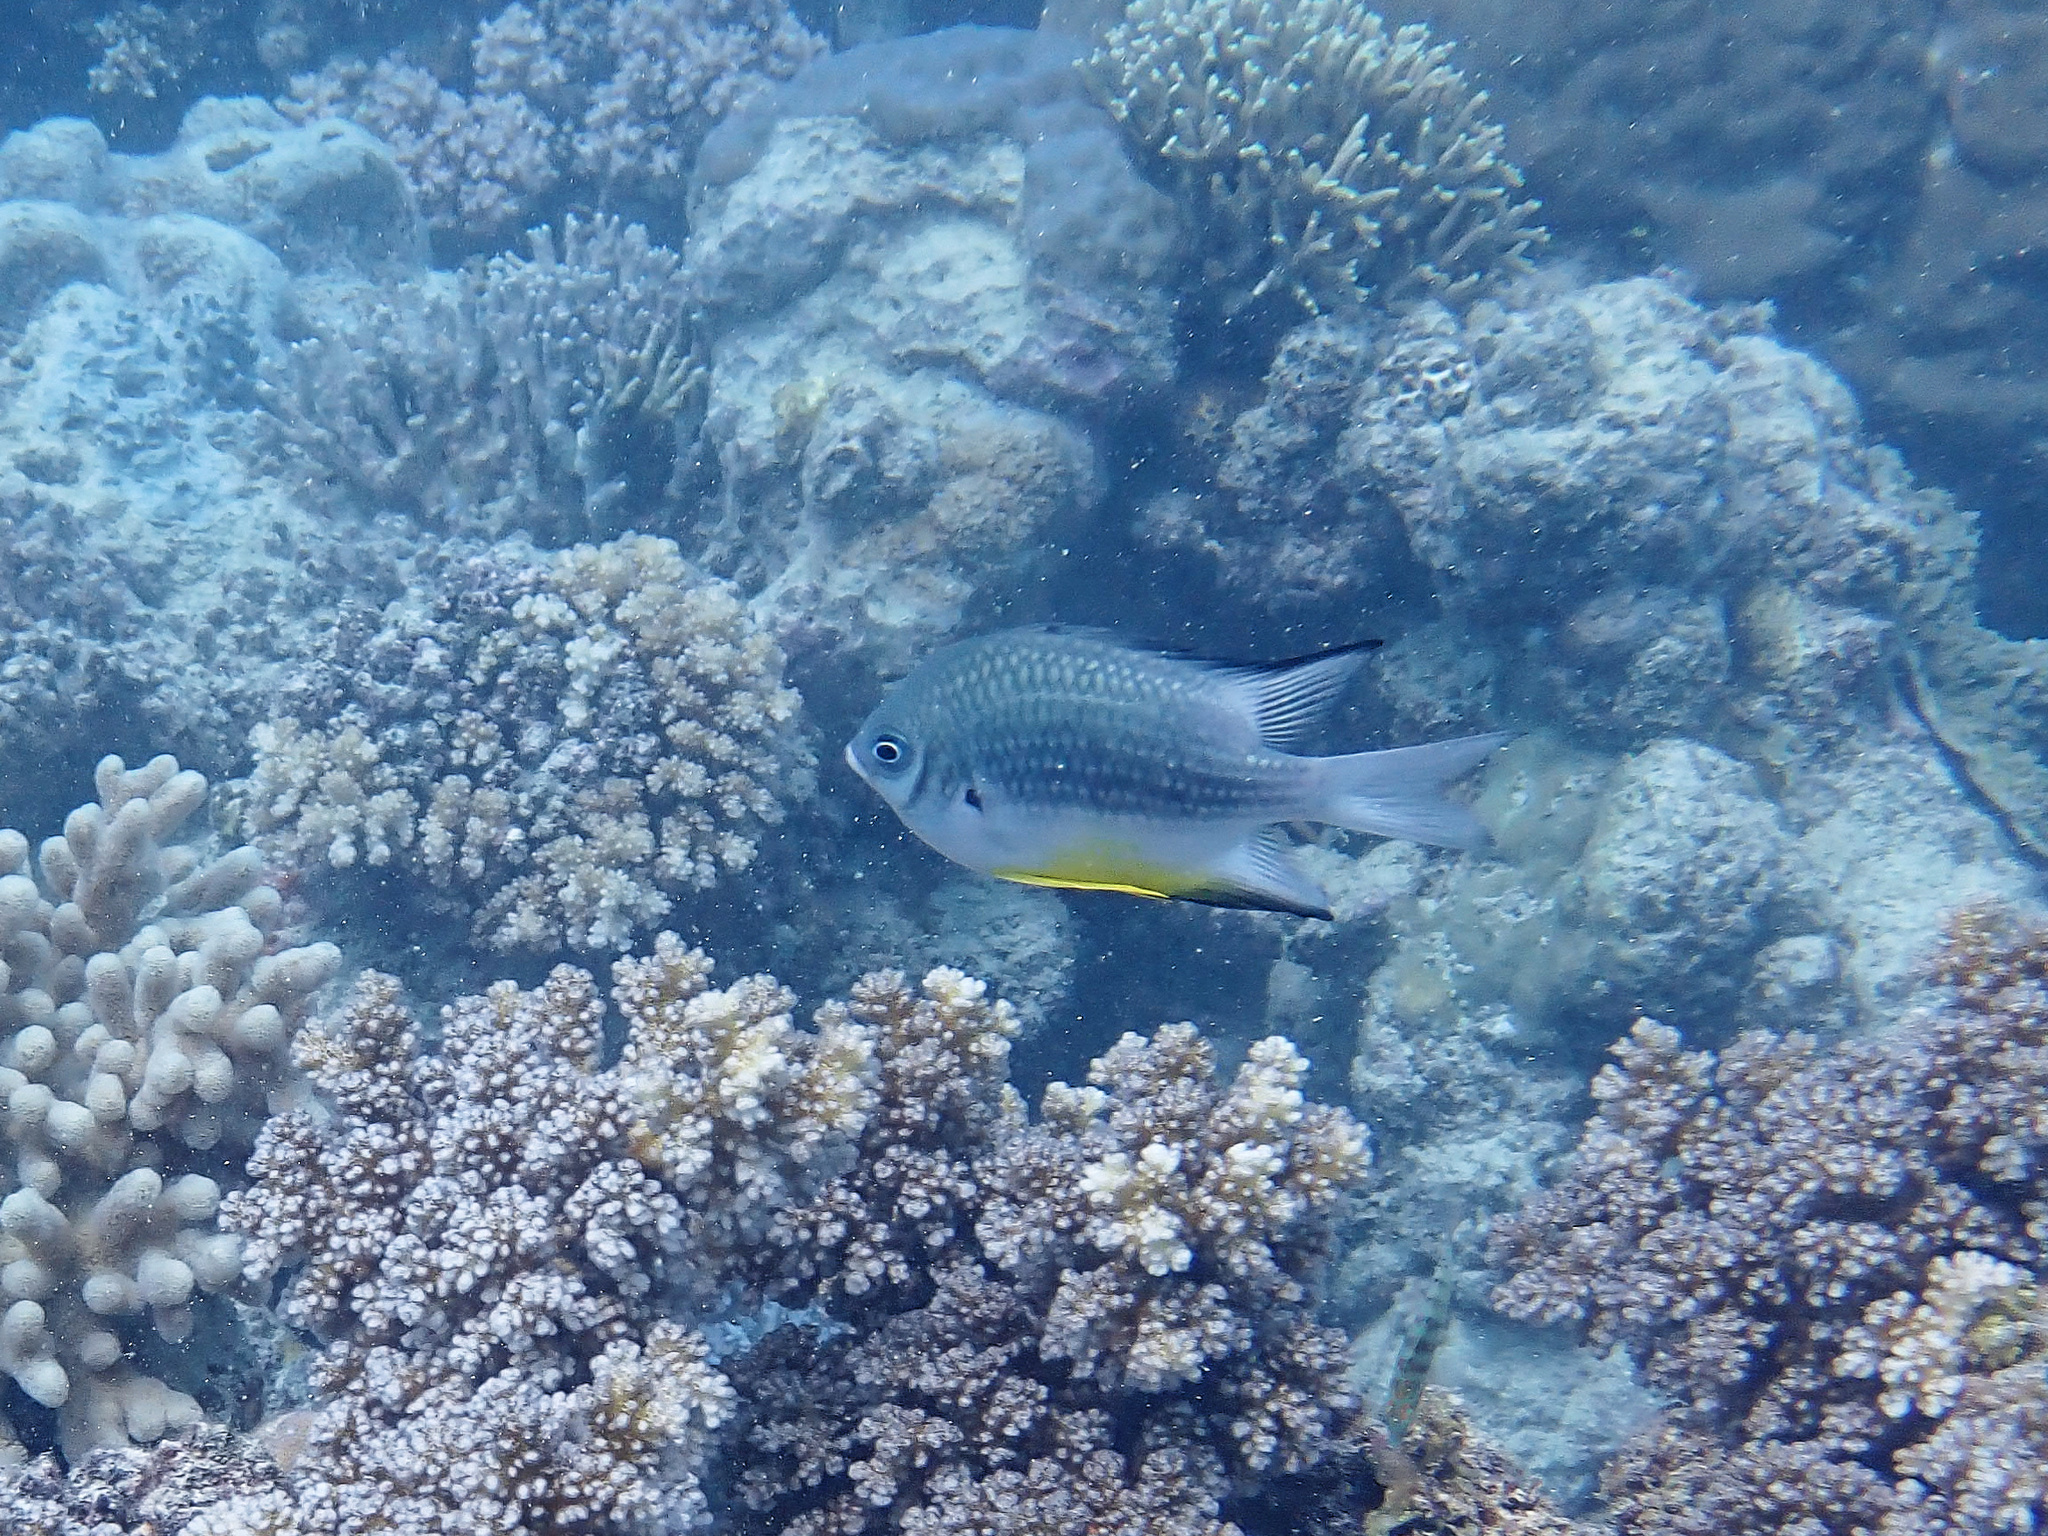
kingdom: Animalia
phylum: Chordata
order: Perciformes
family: Pomacentridae
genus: Amblyglyphidodon
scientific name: Amblyglyphidodon leucogaster
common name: White-belly damsel
